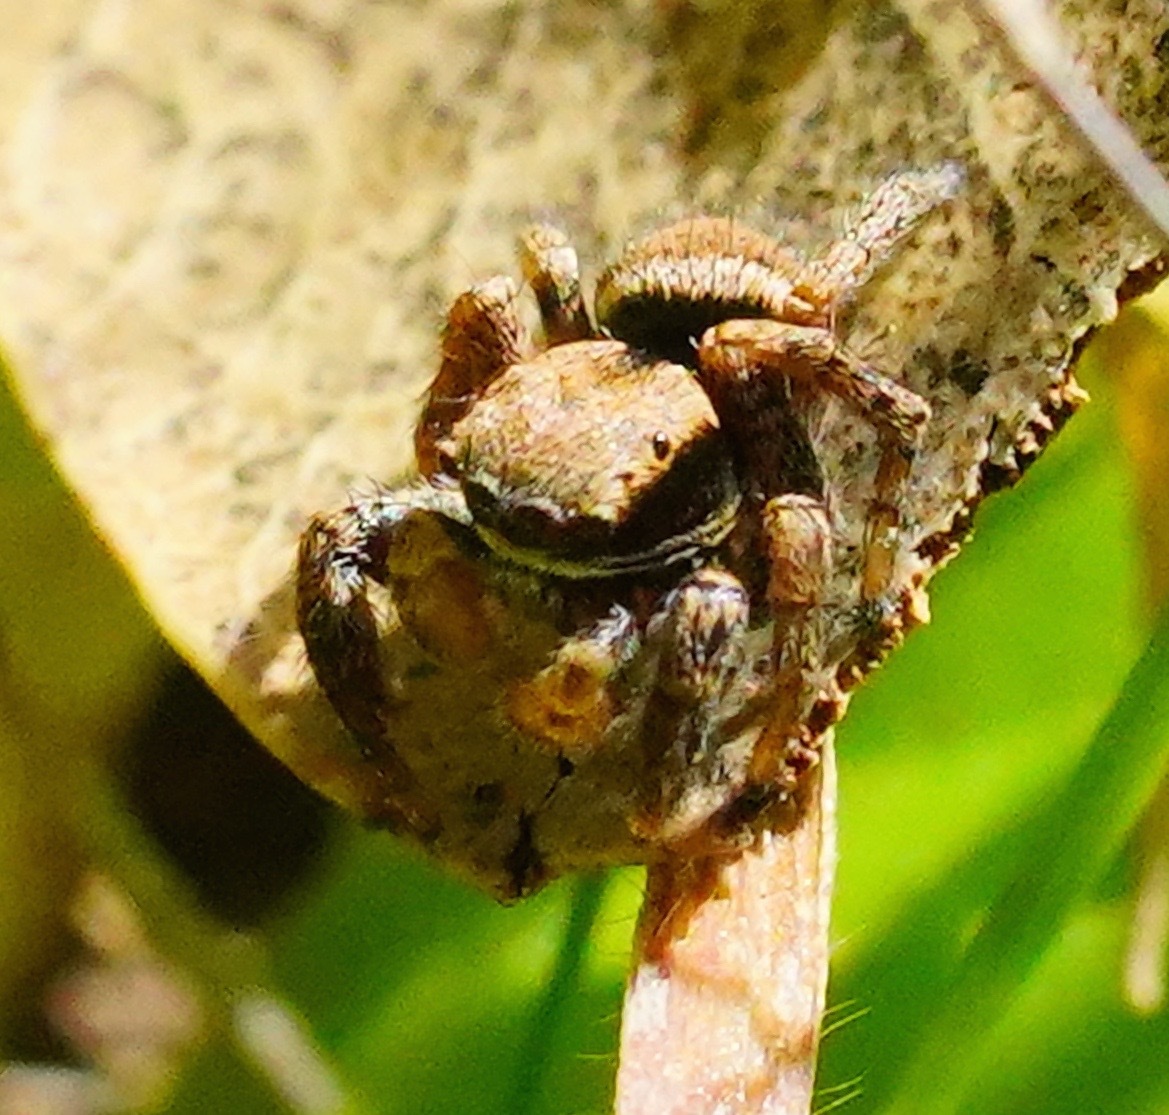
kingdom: Animalia
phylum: Arthropoda
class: Arachnida
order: Araneae
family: Salticidae
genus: Habronattus
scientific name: Habronattus oregonensis
